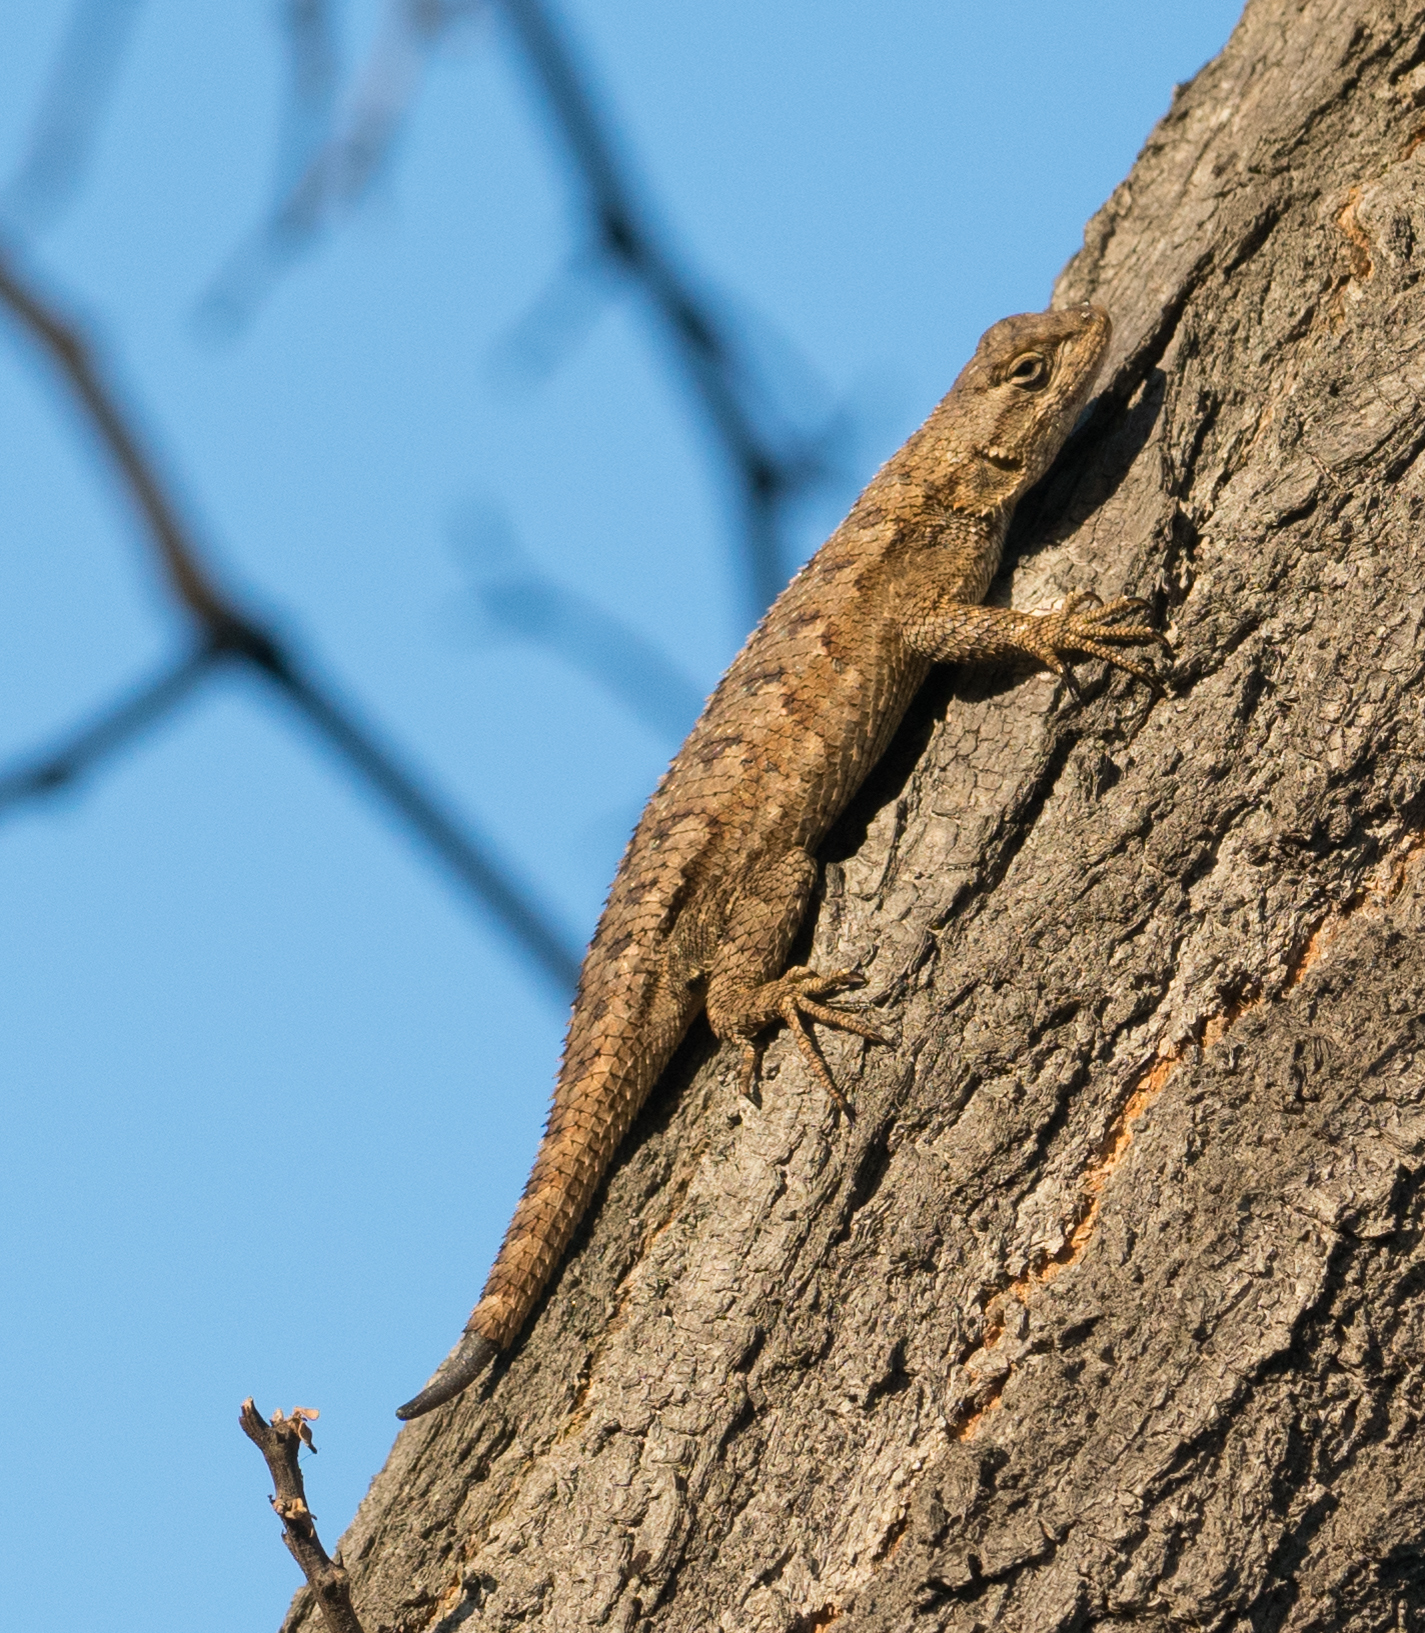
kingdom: Animalia
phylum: Chordata
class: Squamata
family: Phrynosomatidae
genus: Sceloporus
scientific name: Sceloporus occidentalis
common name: Western fence lizard
